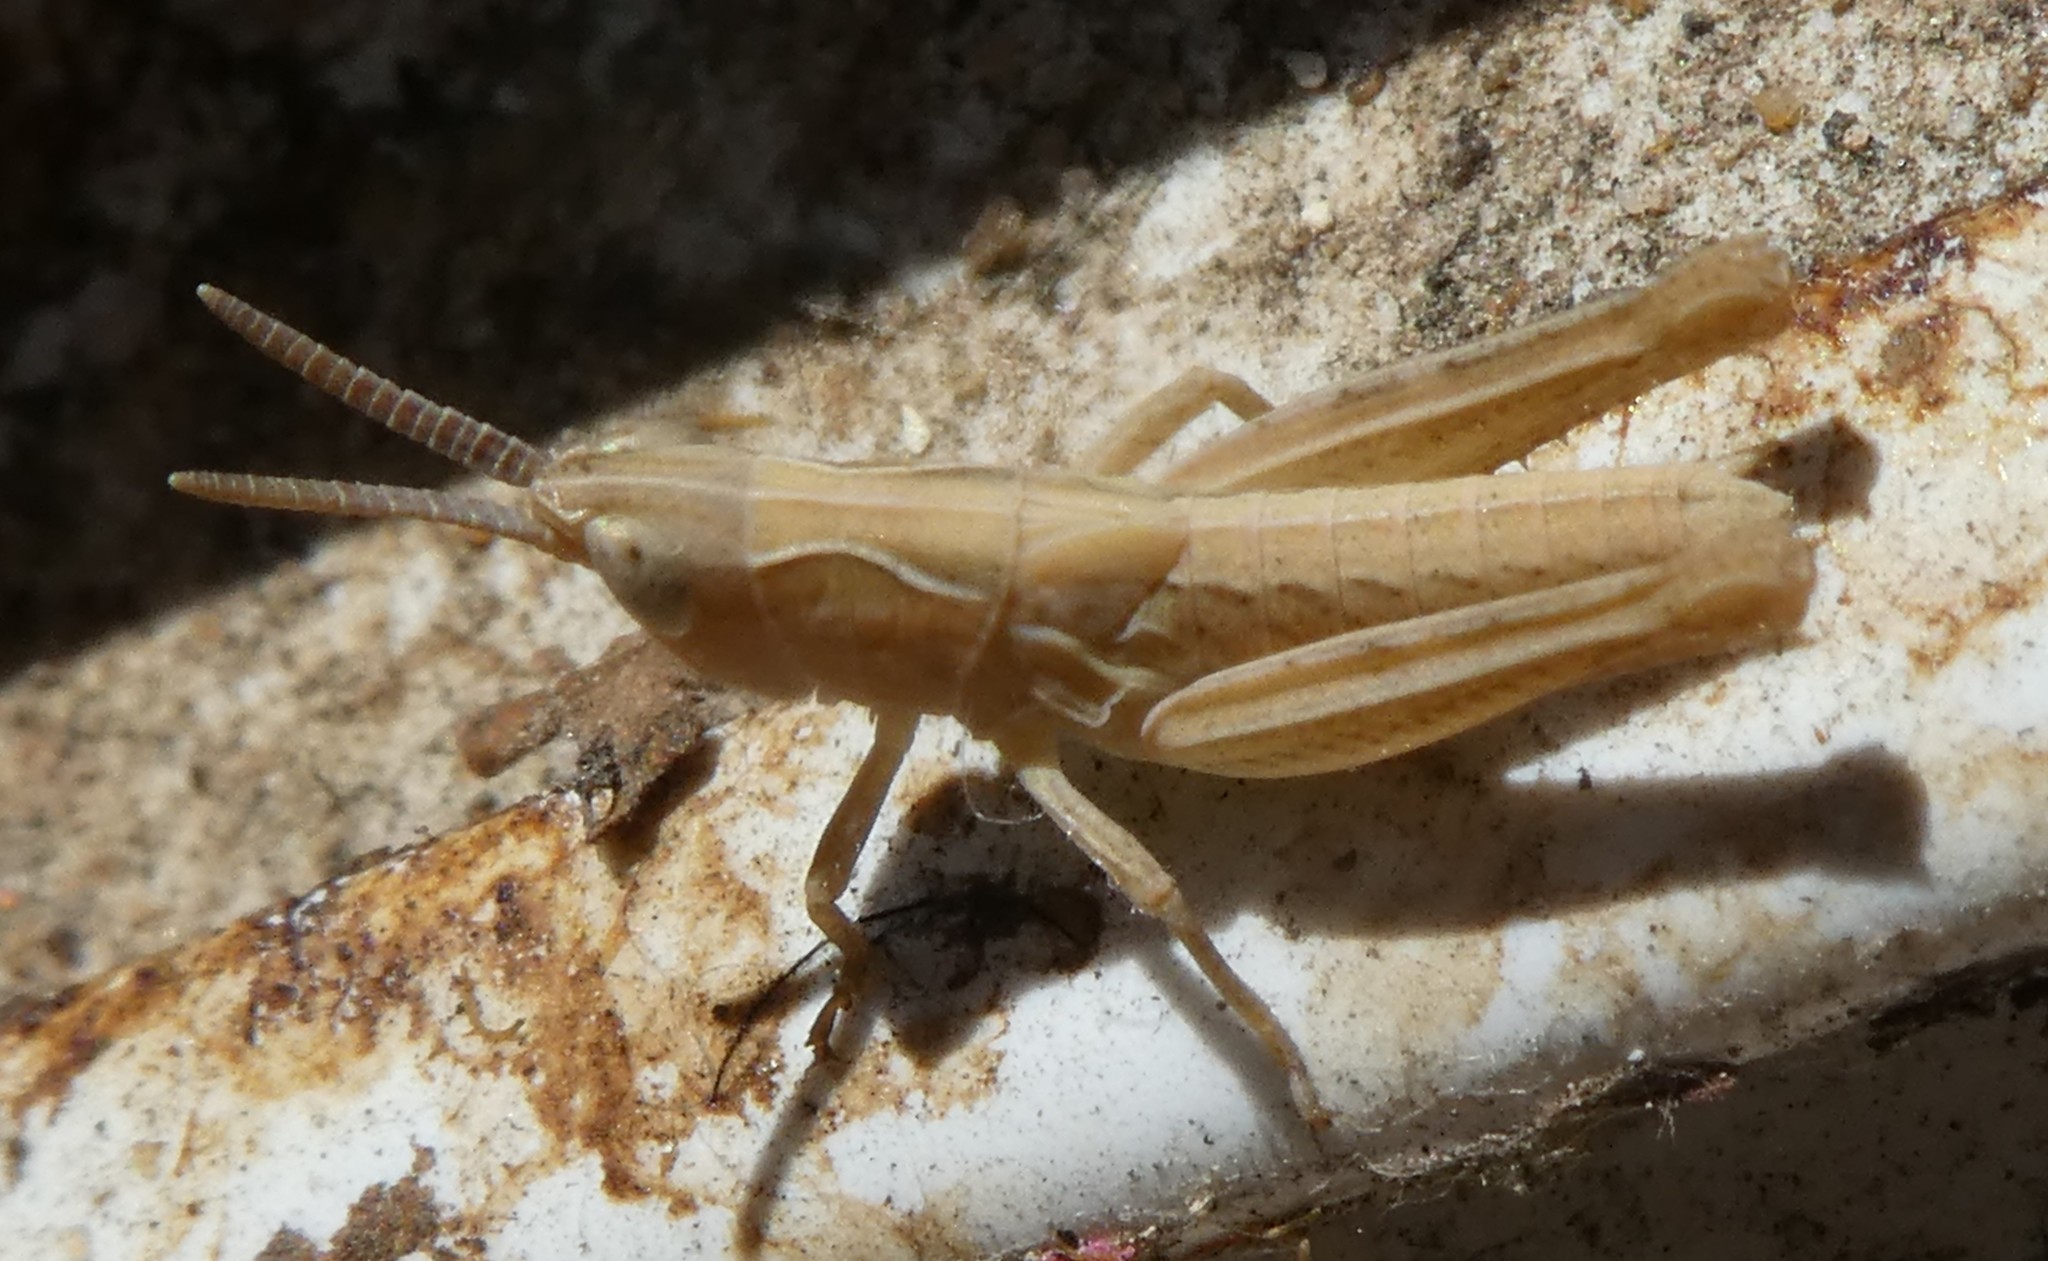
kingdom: Animalia
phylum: Arthropoda
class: Insecta
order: Orthoptera
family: Acrididae
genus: Chorthippus
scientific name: Chorthippus brunneus
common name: Field grasshopper
